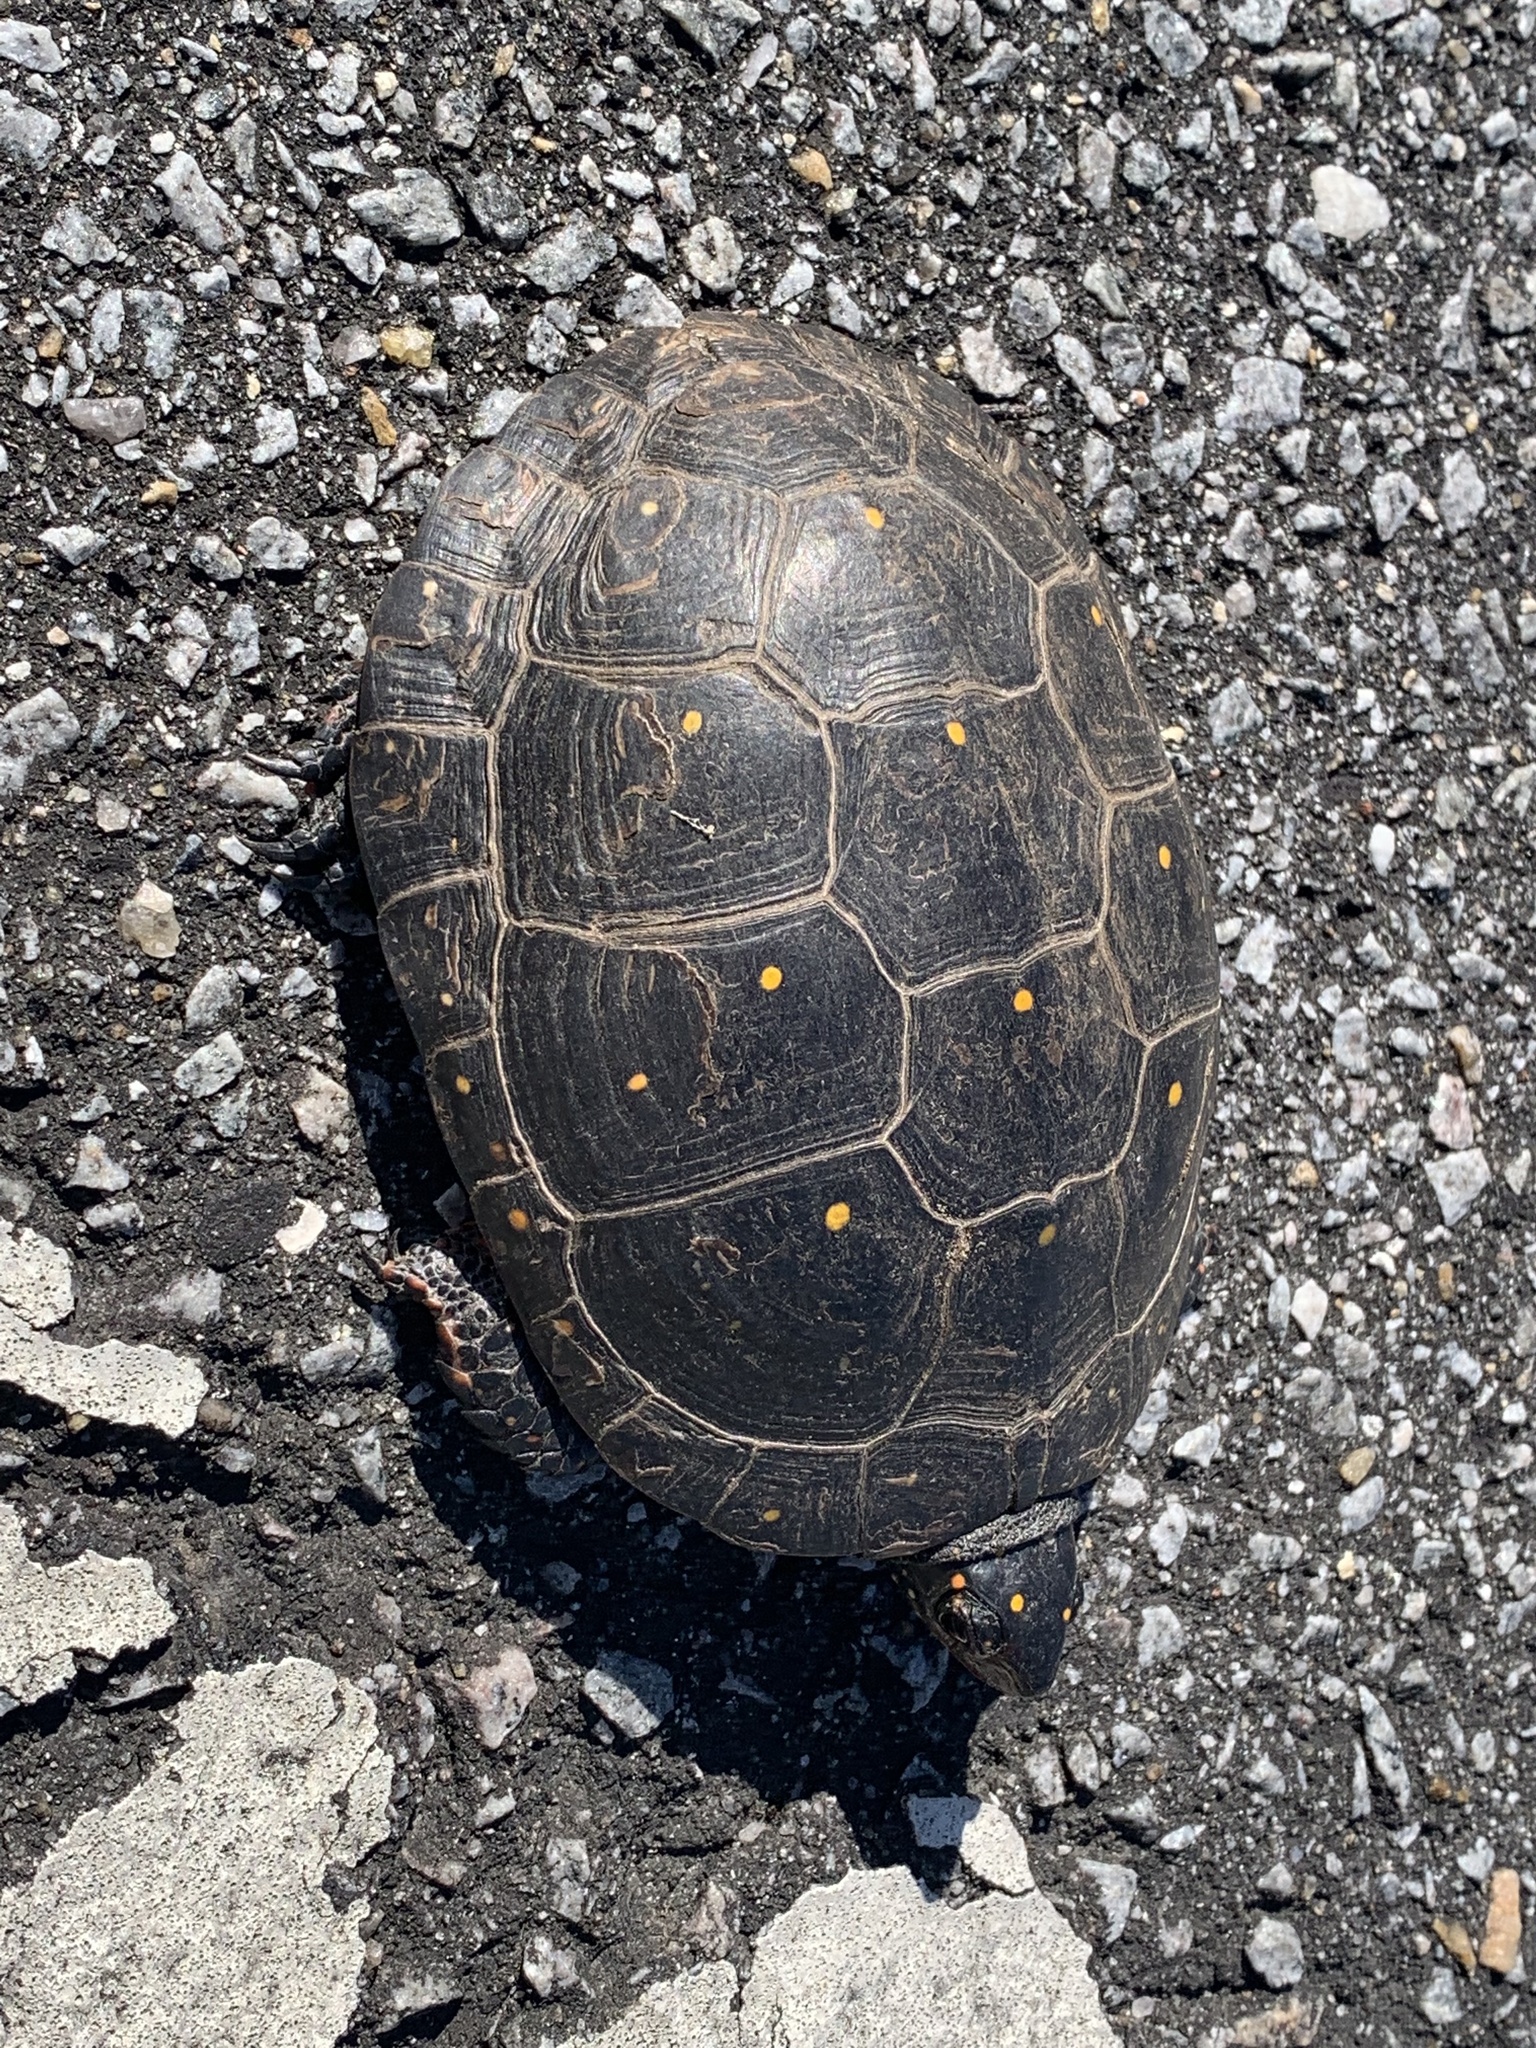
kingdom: Animalia
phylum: Chordata
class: Testudines
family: Emydidae
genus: Clemmys
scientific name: Clemmys guttata
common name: Spotted turtle
